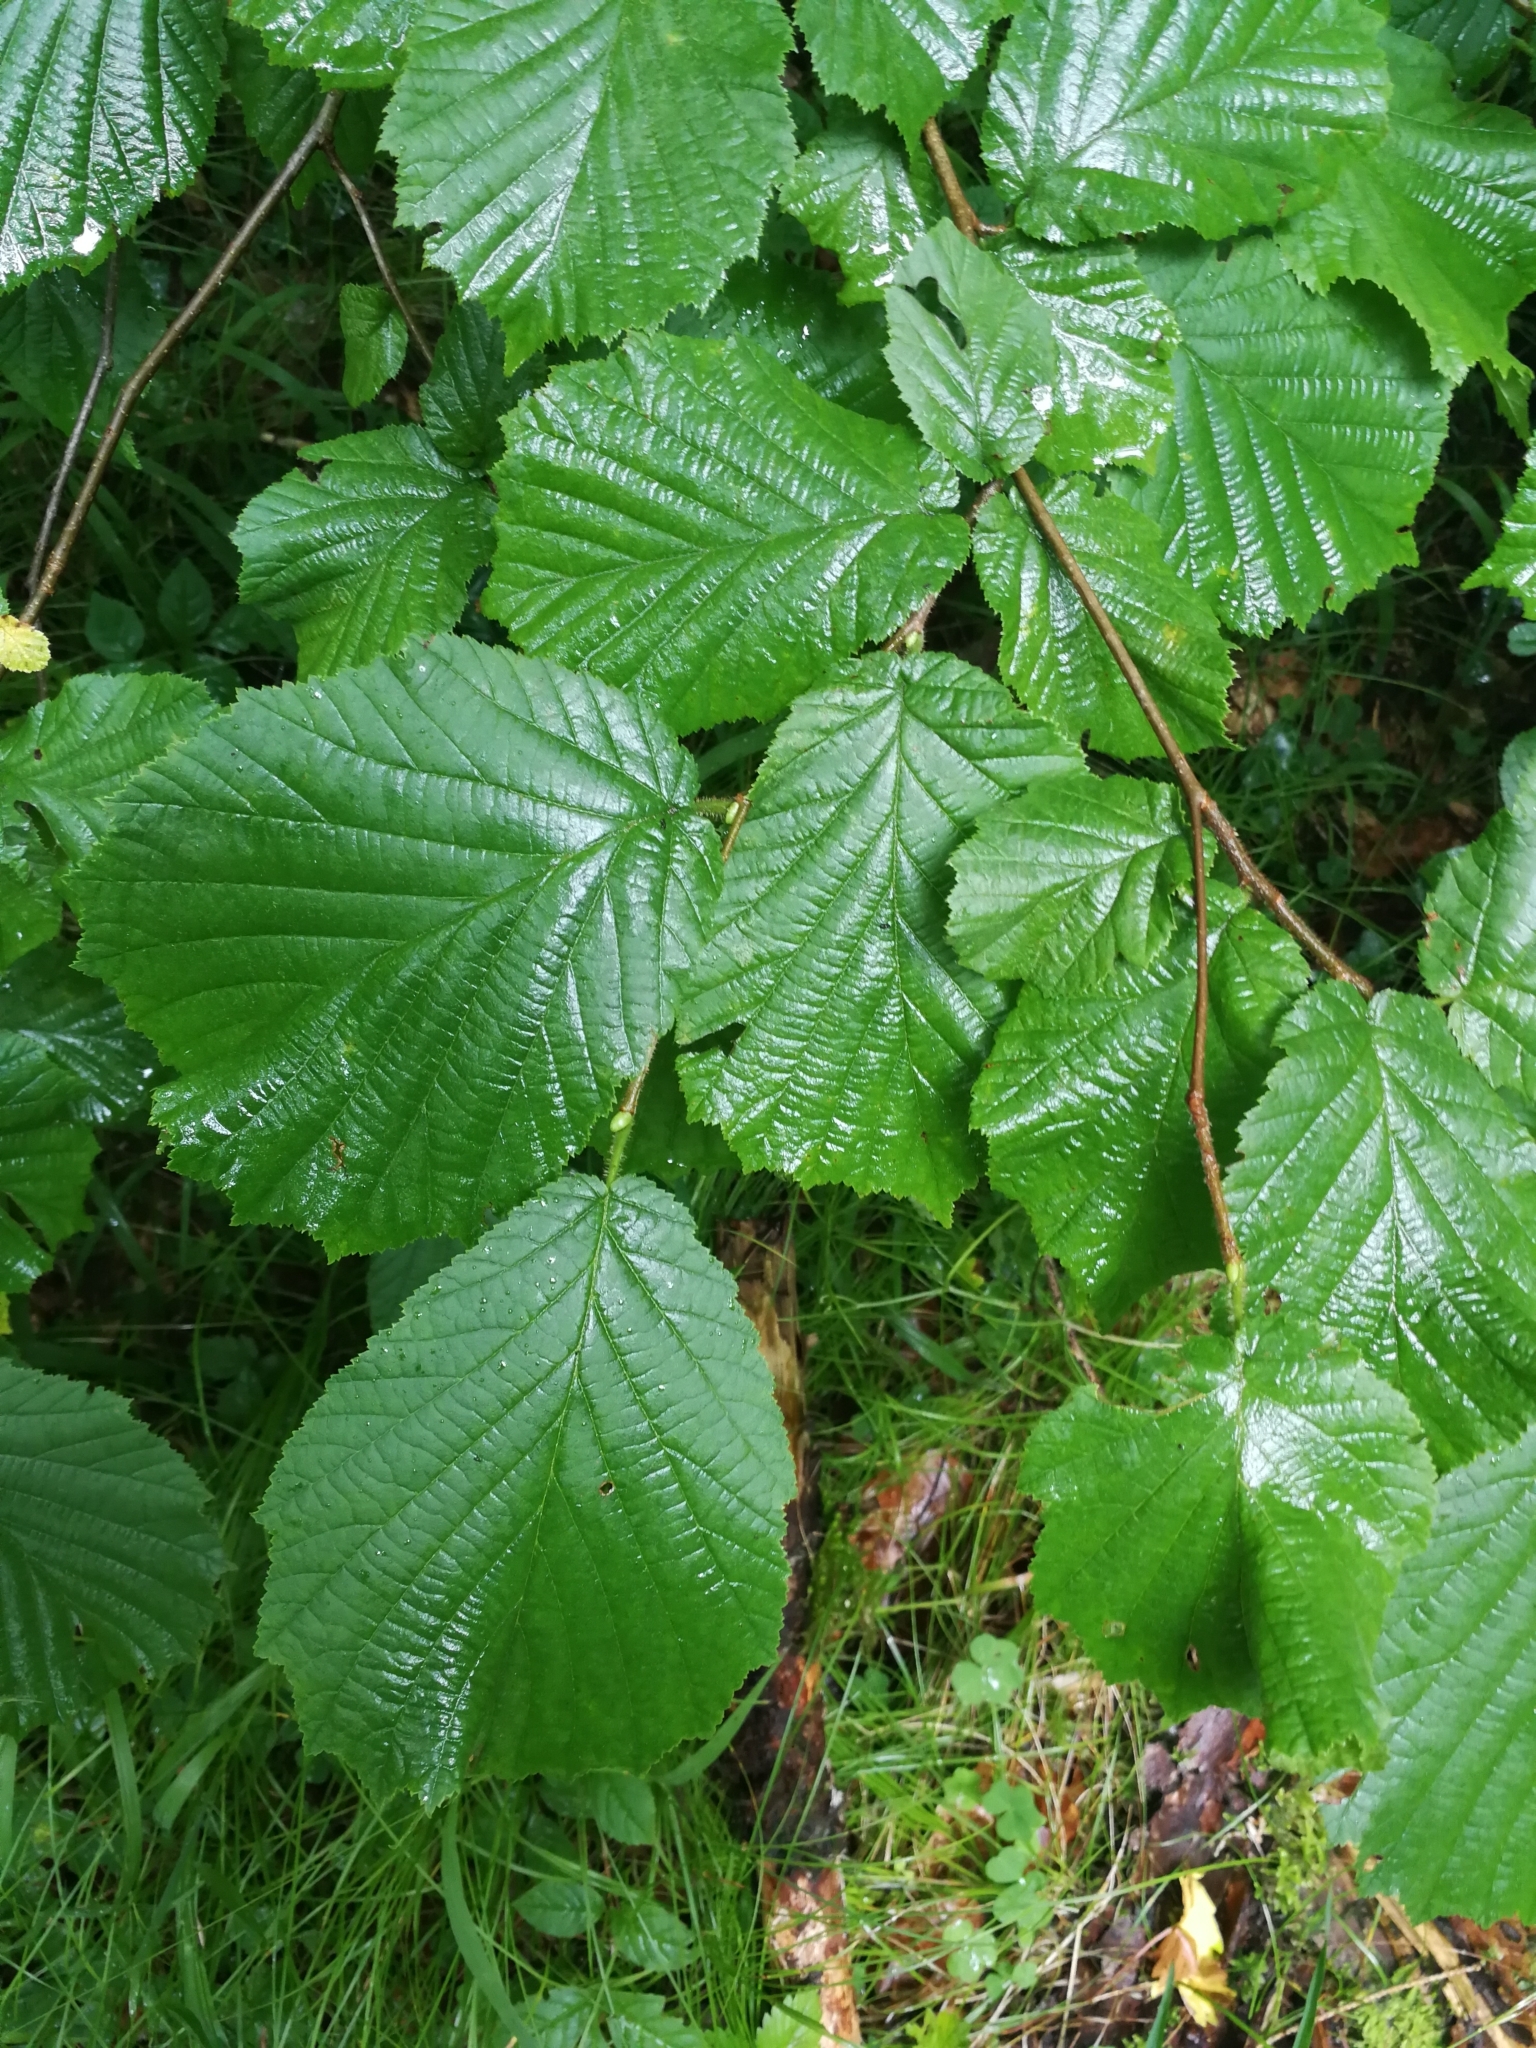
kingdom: Plantae
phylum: Tracheophyta
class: Magnoliopsida
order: Fagales
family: Betulaceae
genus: Corylus
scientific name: Corylus avellana
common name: European hazel
